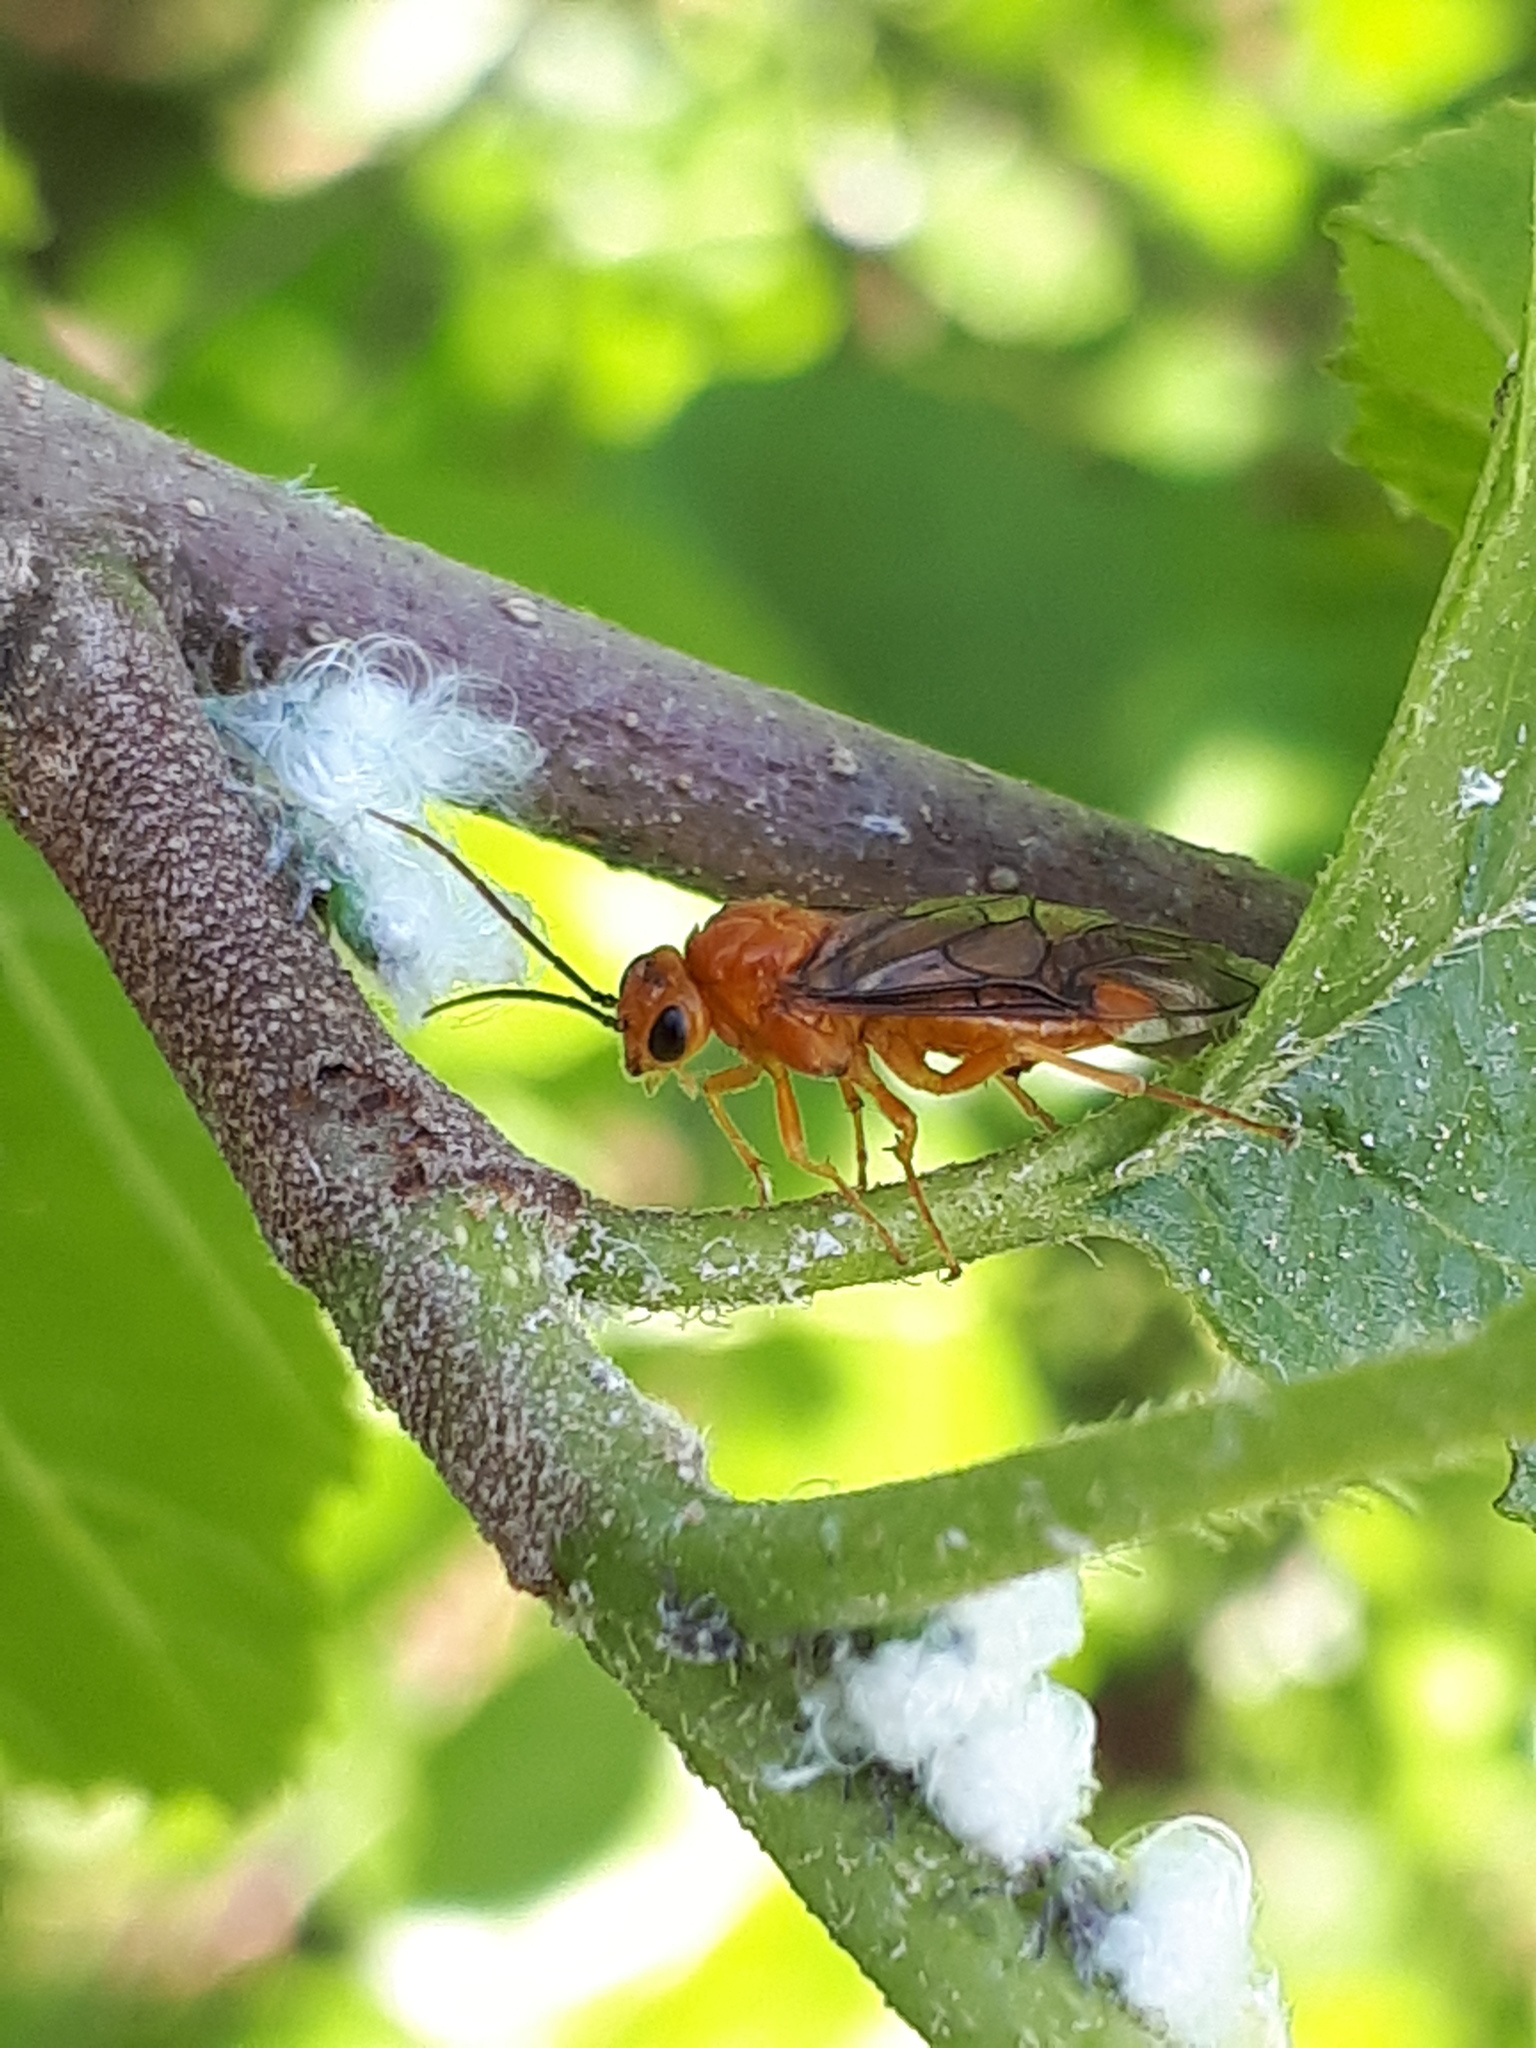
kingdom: Animalia
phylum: Arthropoda
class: Insecta
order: Hymenoptera
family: Tenthredinidae
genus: Nematinus
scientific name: Nematinus steini
